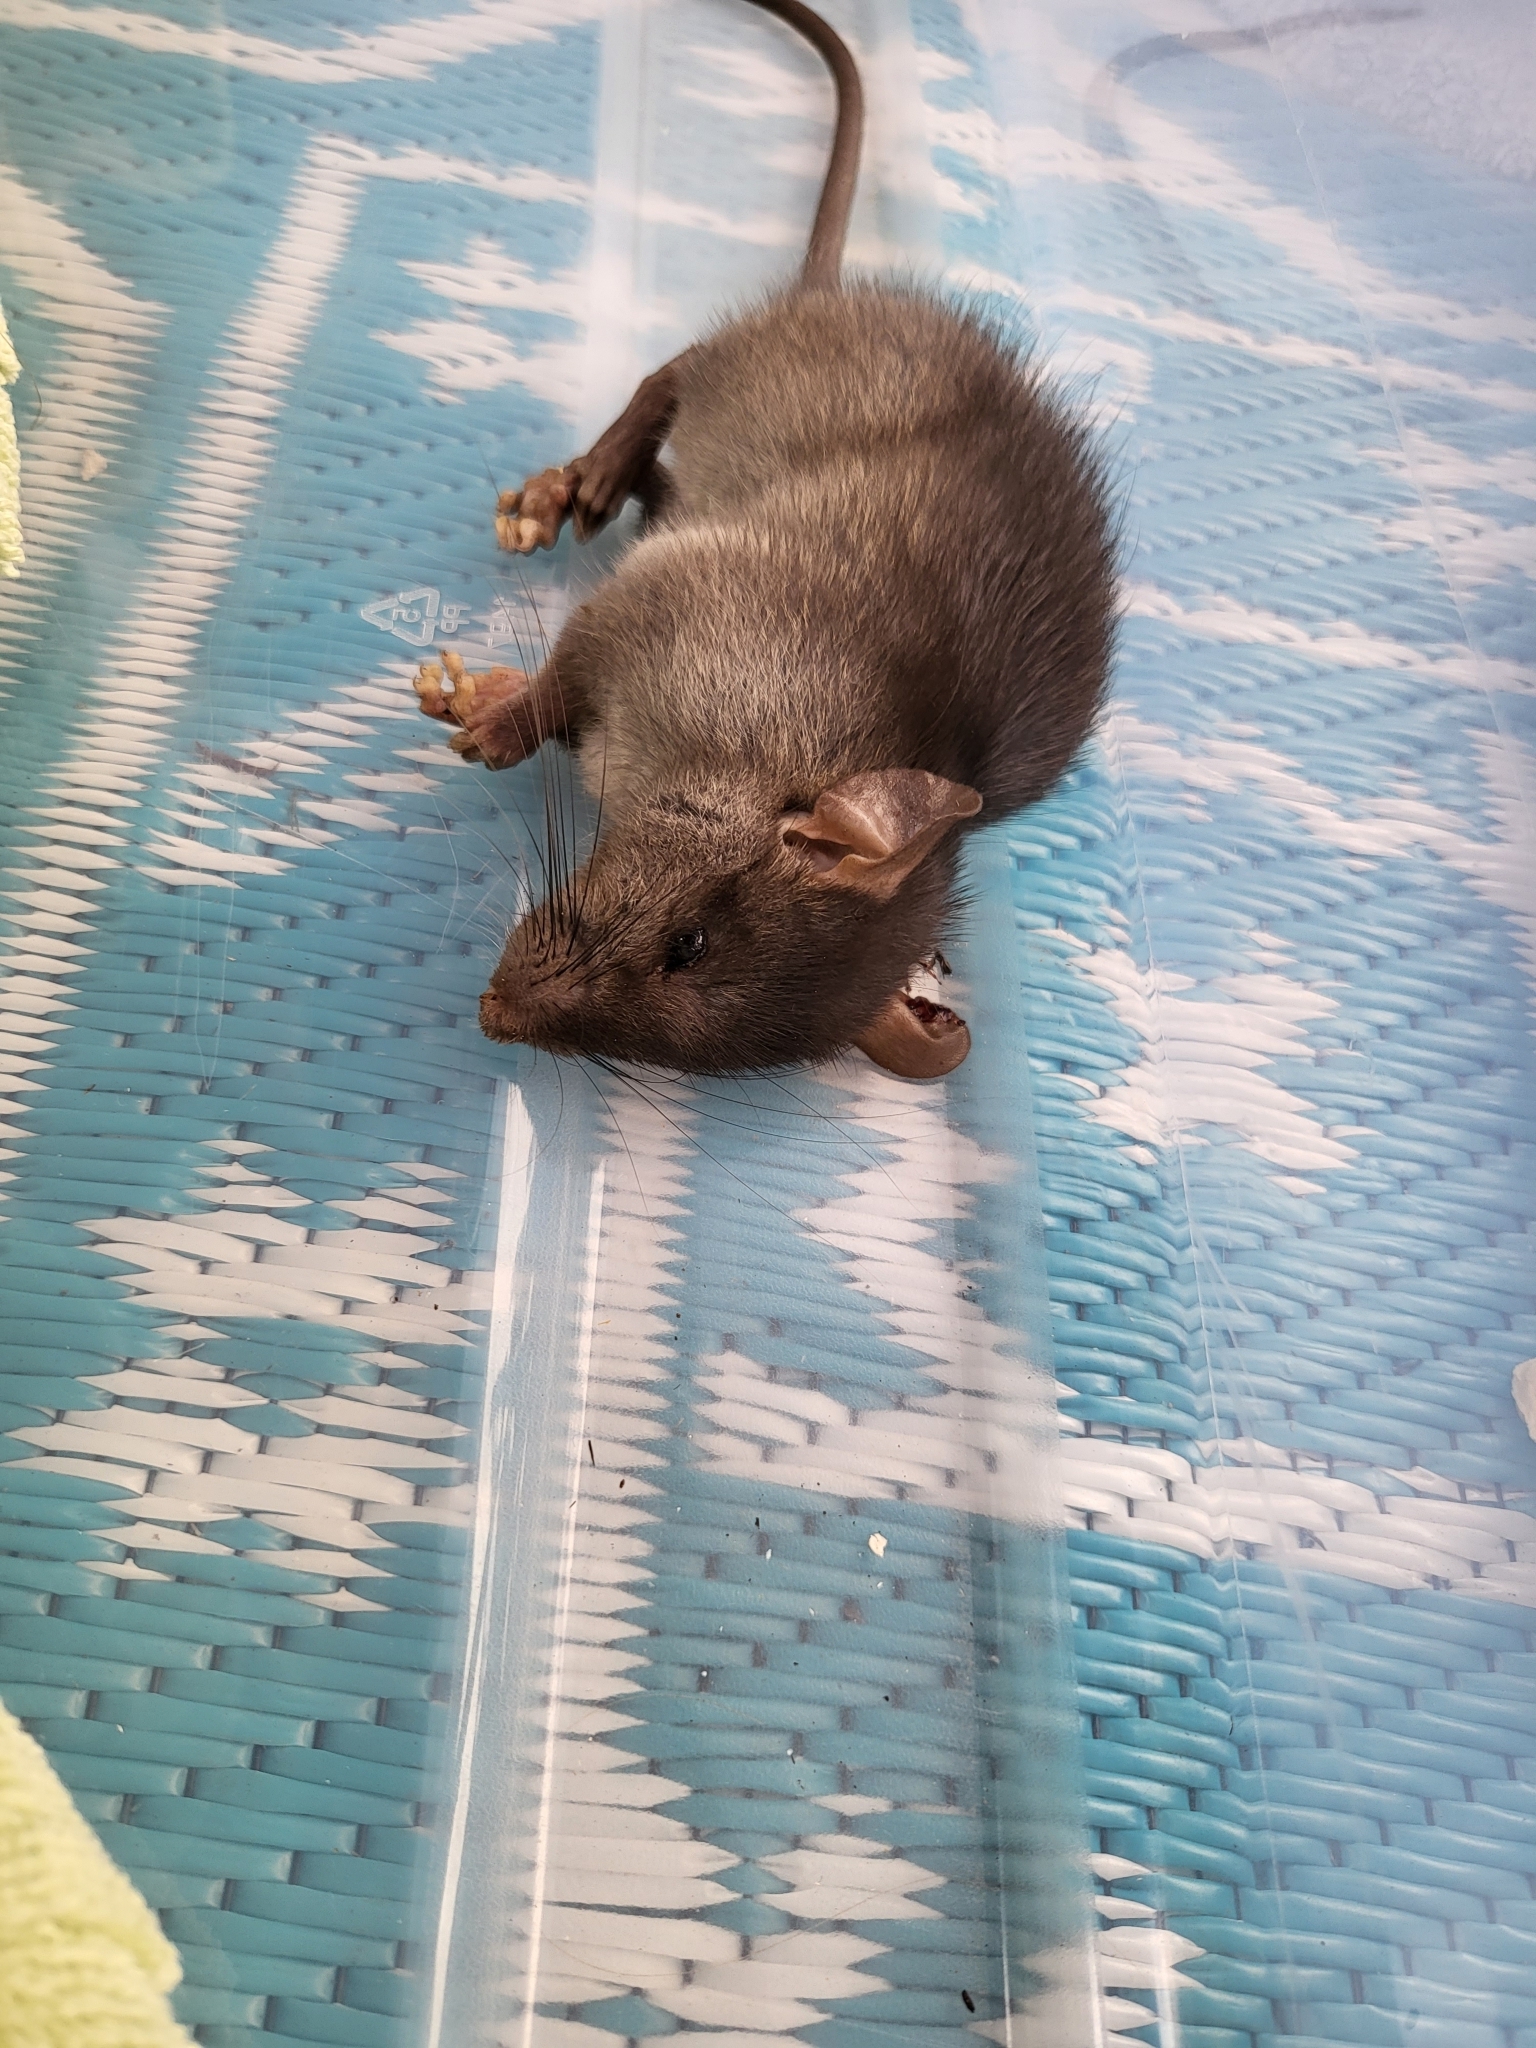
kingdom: Animalia
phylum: Chordata
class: Mammalia
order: Rodentia
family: Muridae
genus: Rattus
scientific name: Rattus rattus
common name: Black rat
